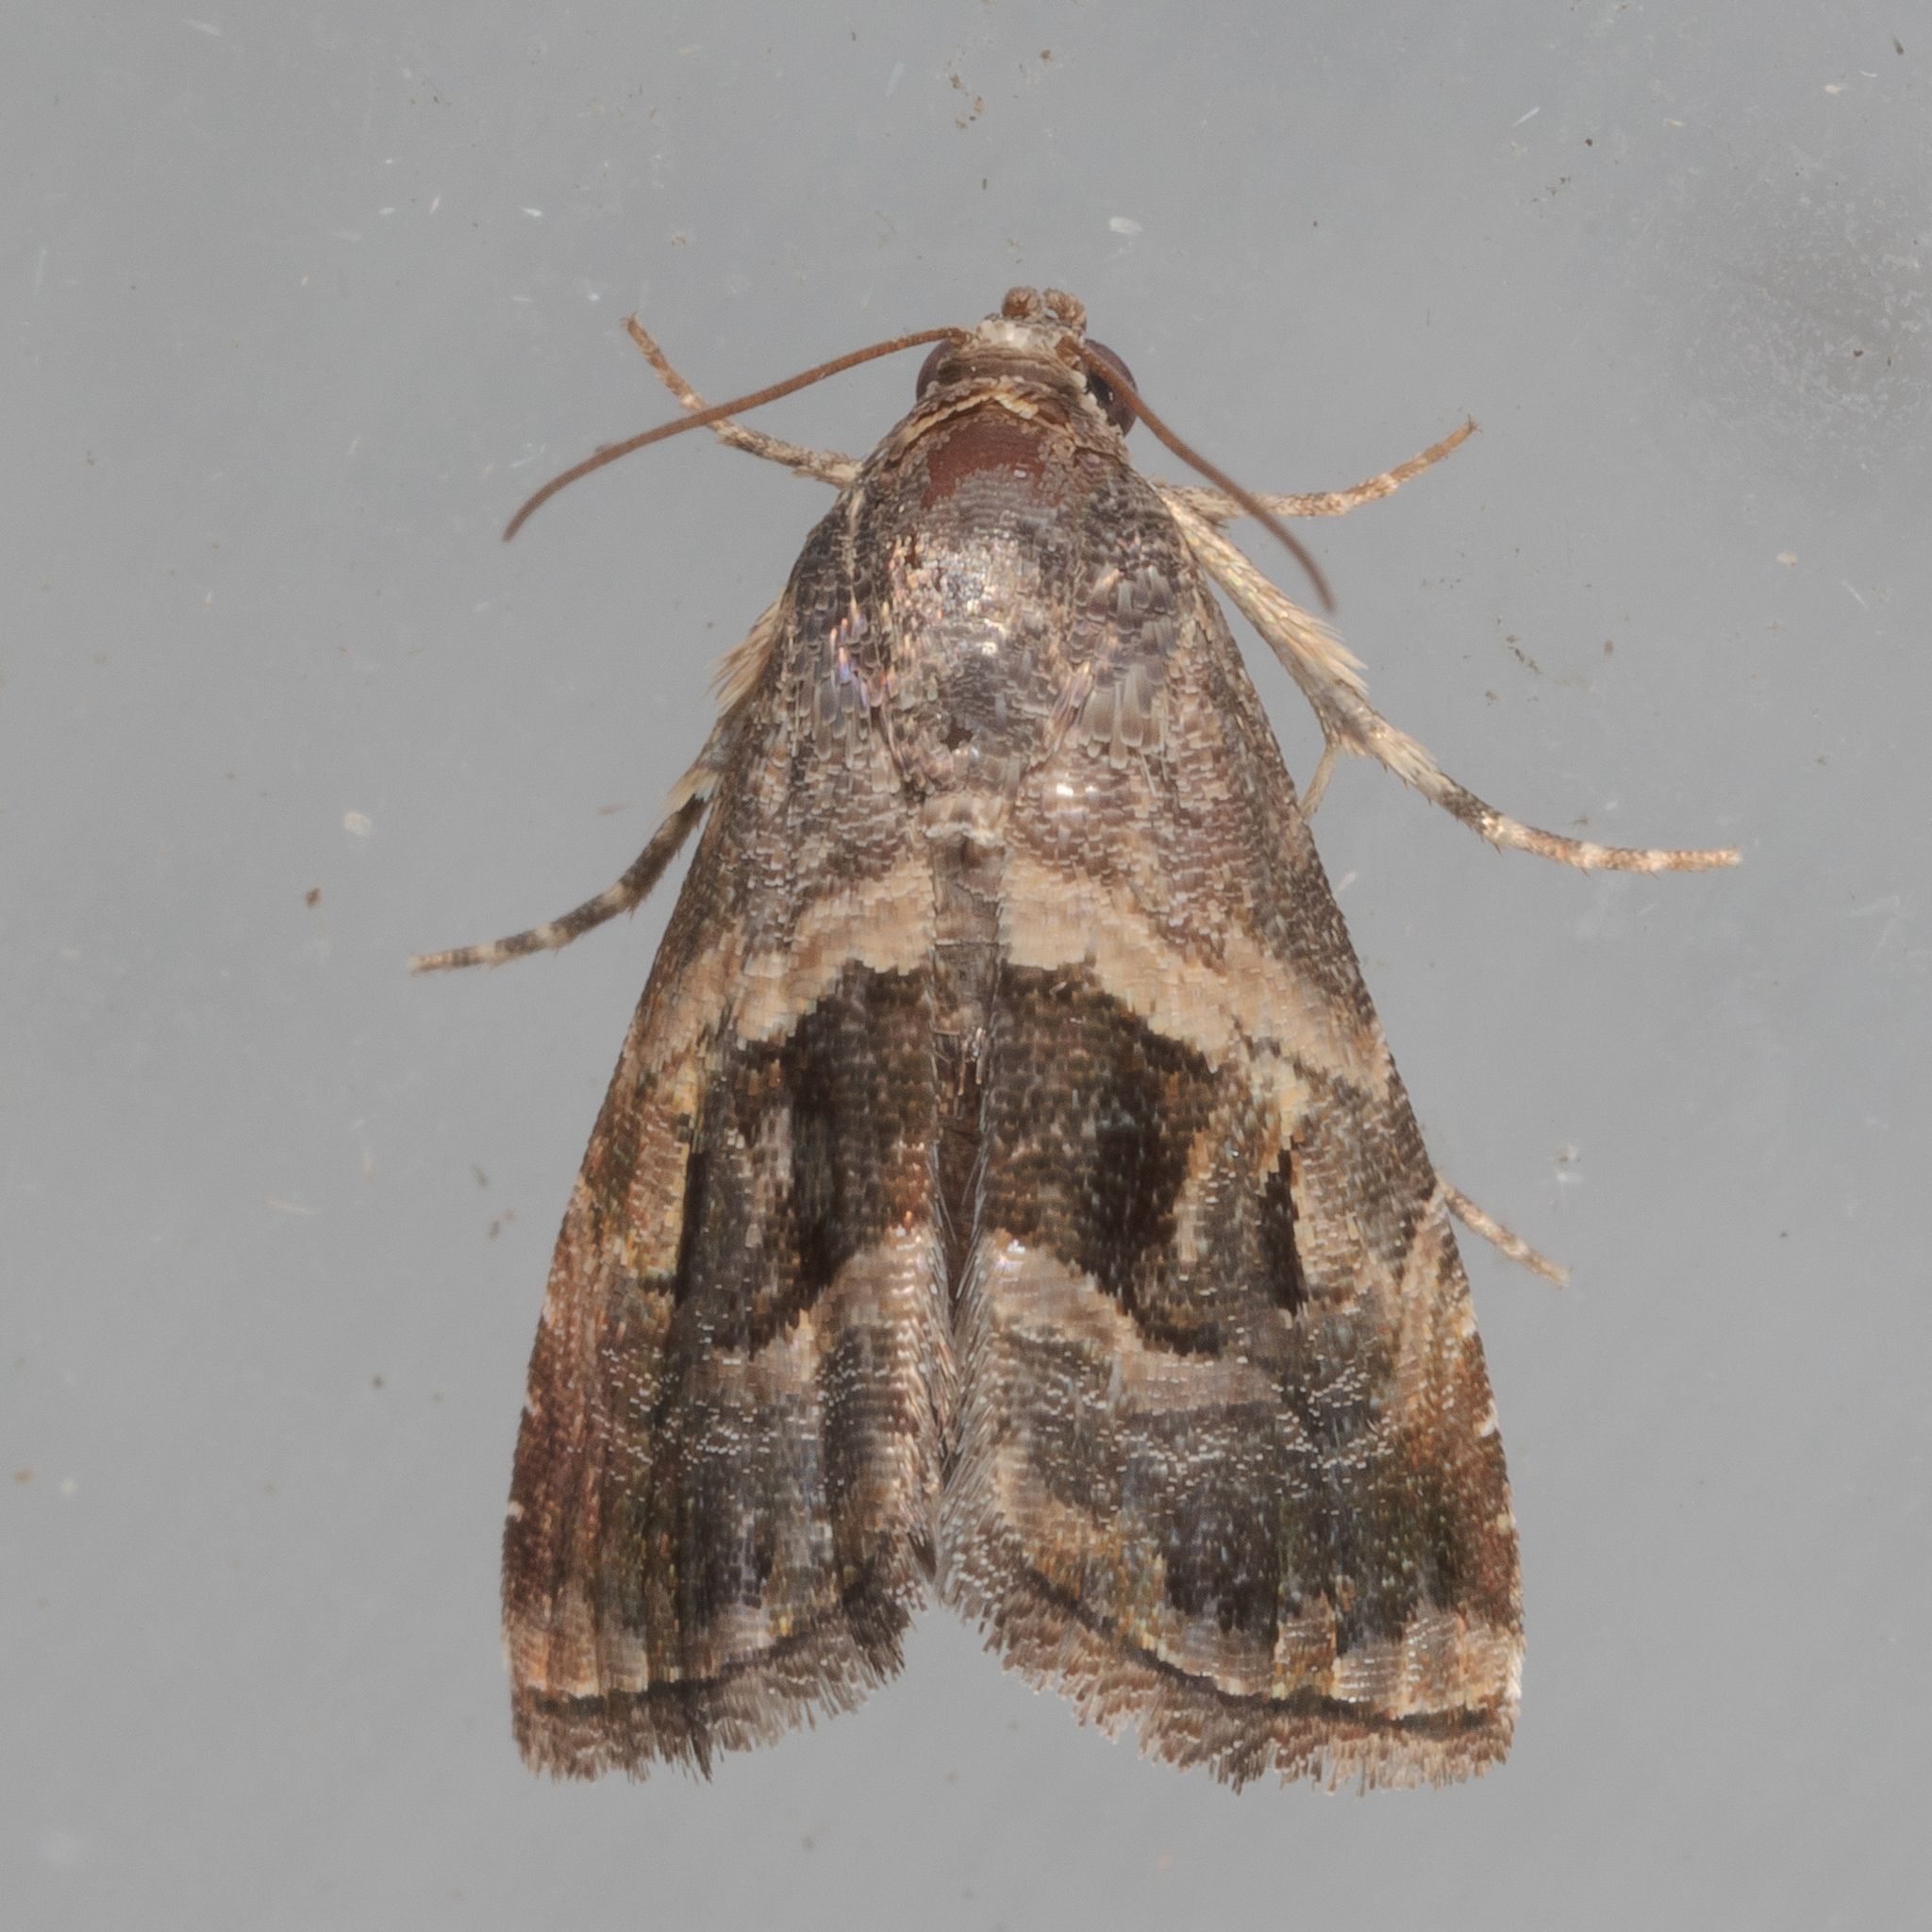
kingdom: Animalia
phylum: Arthropoda
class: Insecta
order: Lepidoptera
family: Noctuidae
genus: Tripudia
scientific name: Tripudia quadrifera
